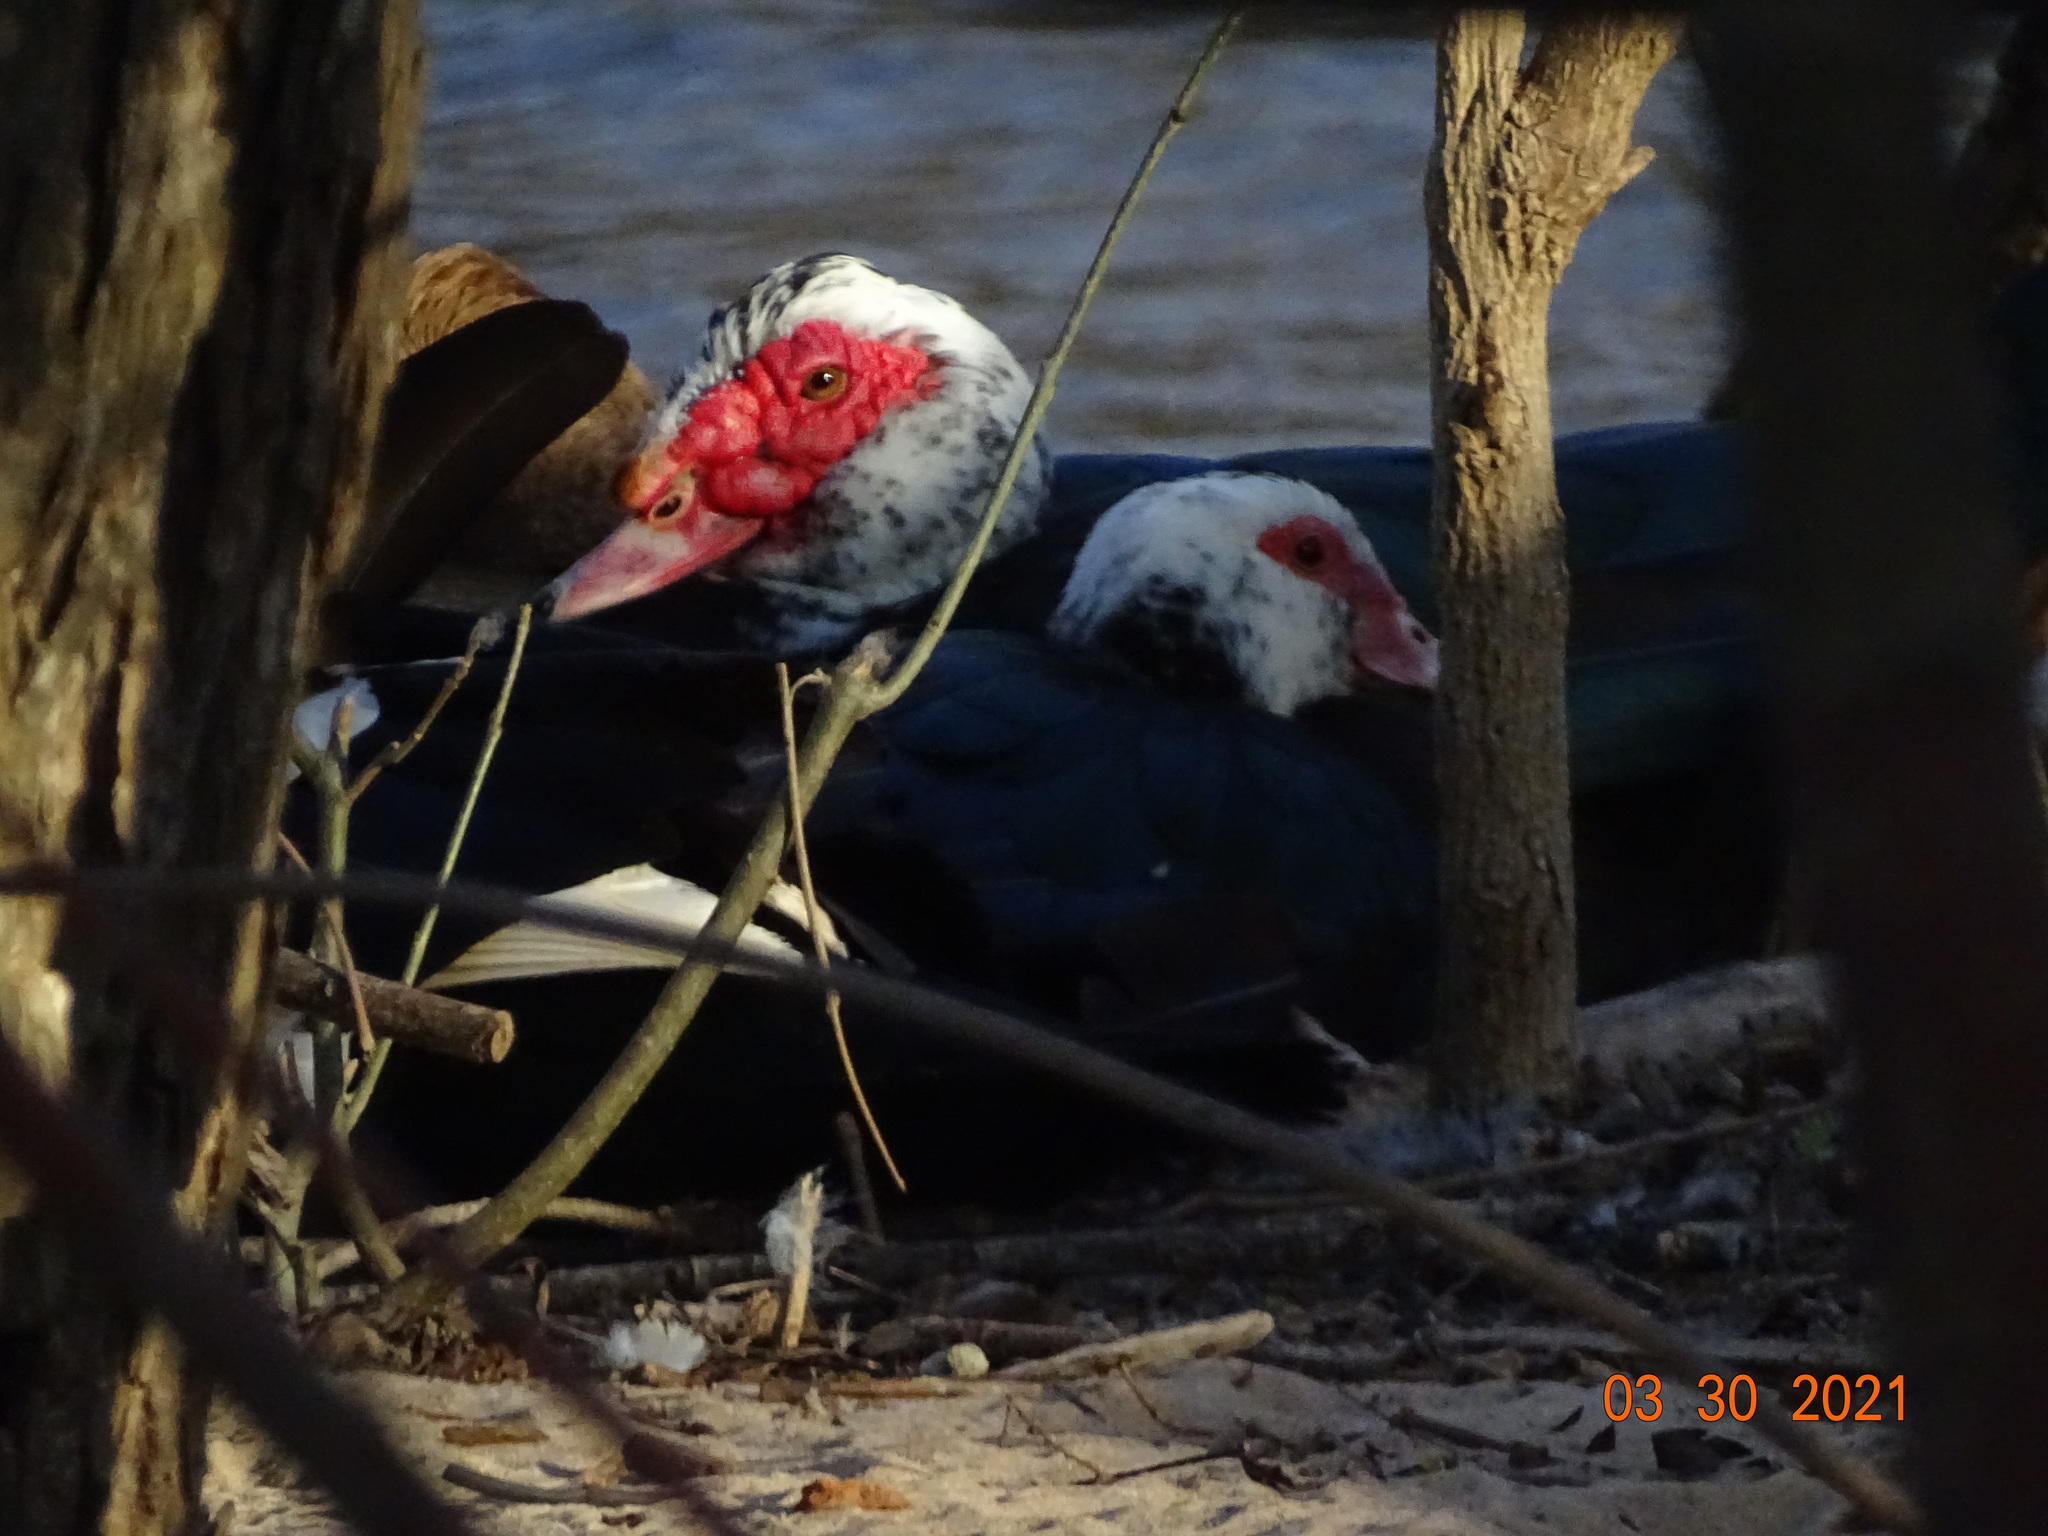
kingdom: Animalia
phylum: Chordata
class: Aves
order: Anseriformes
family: Anatidae
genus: Cairina
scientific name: Cairina moschata
